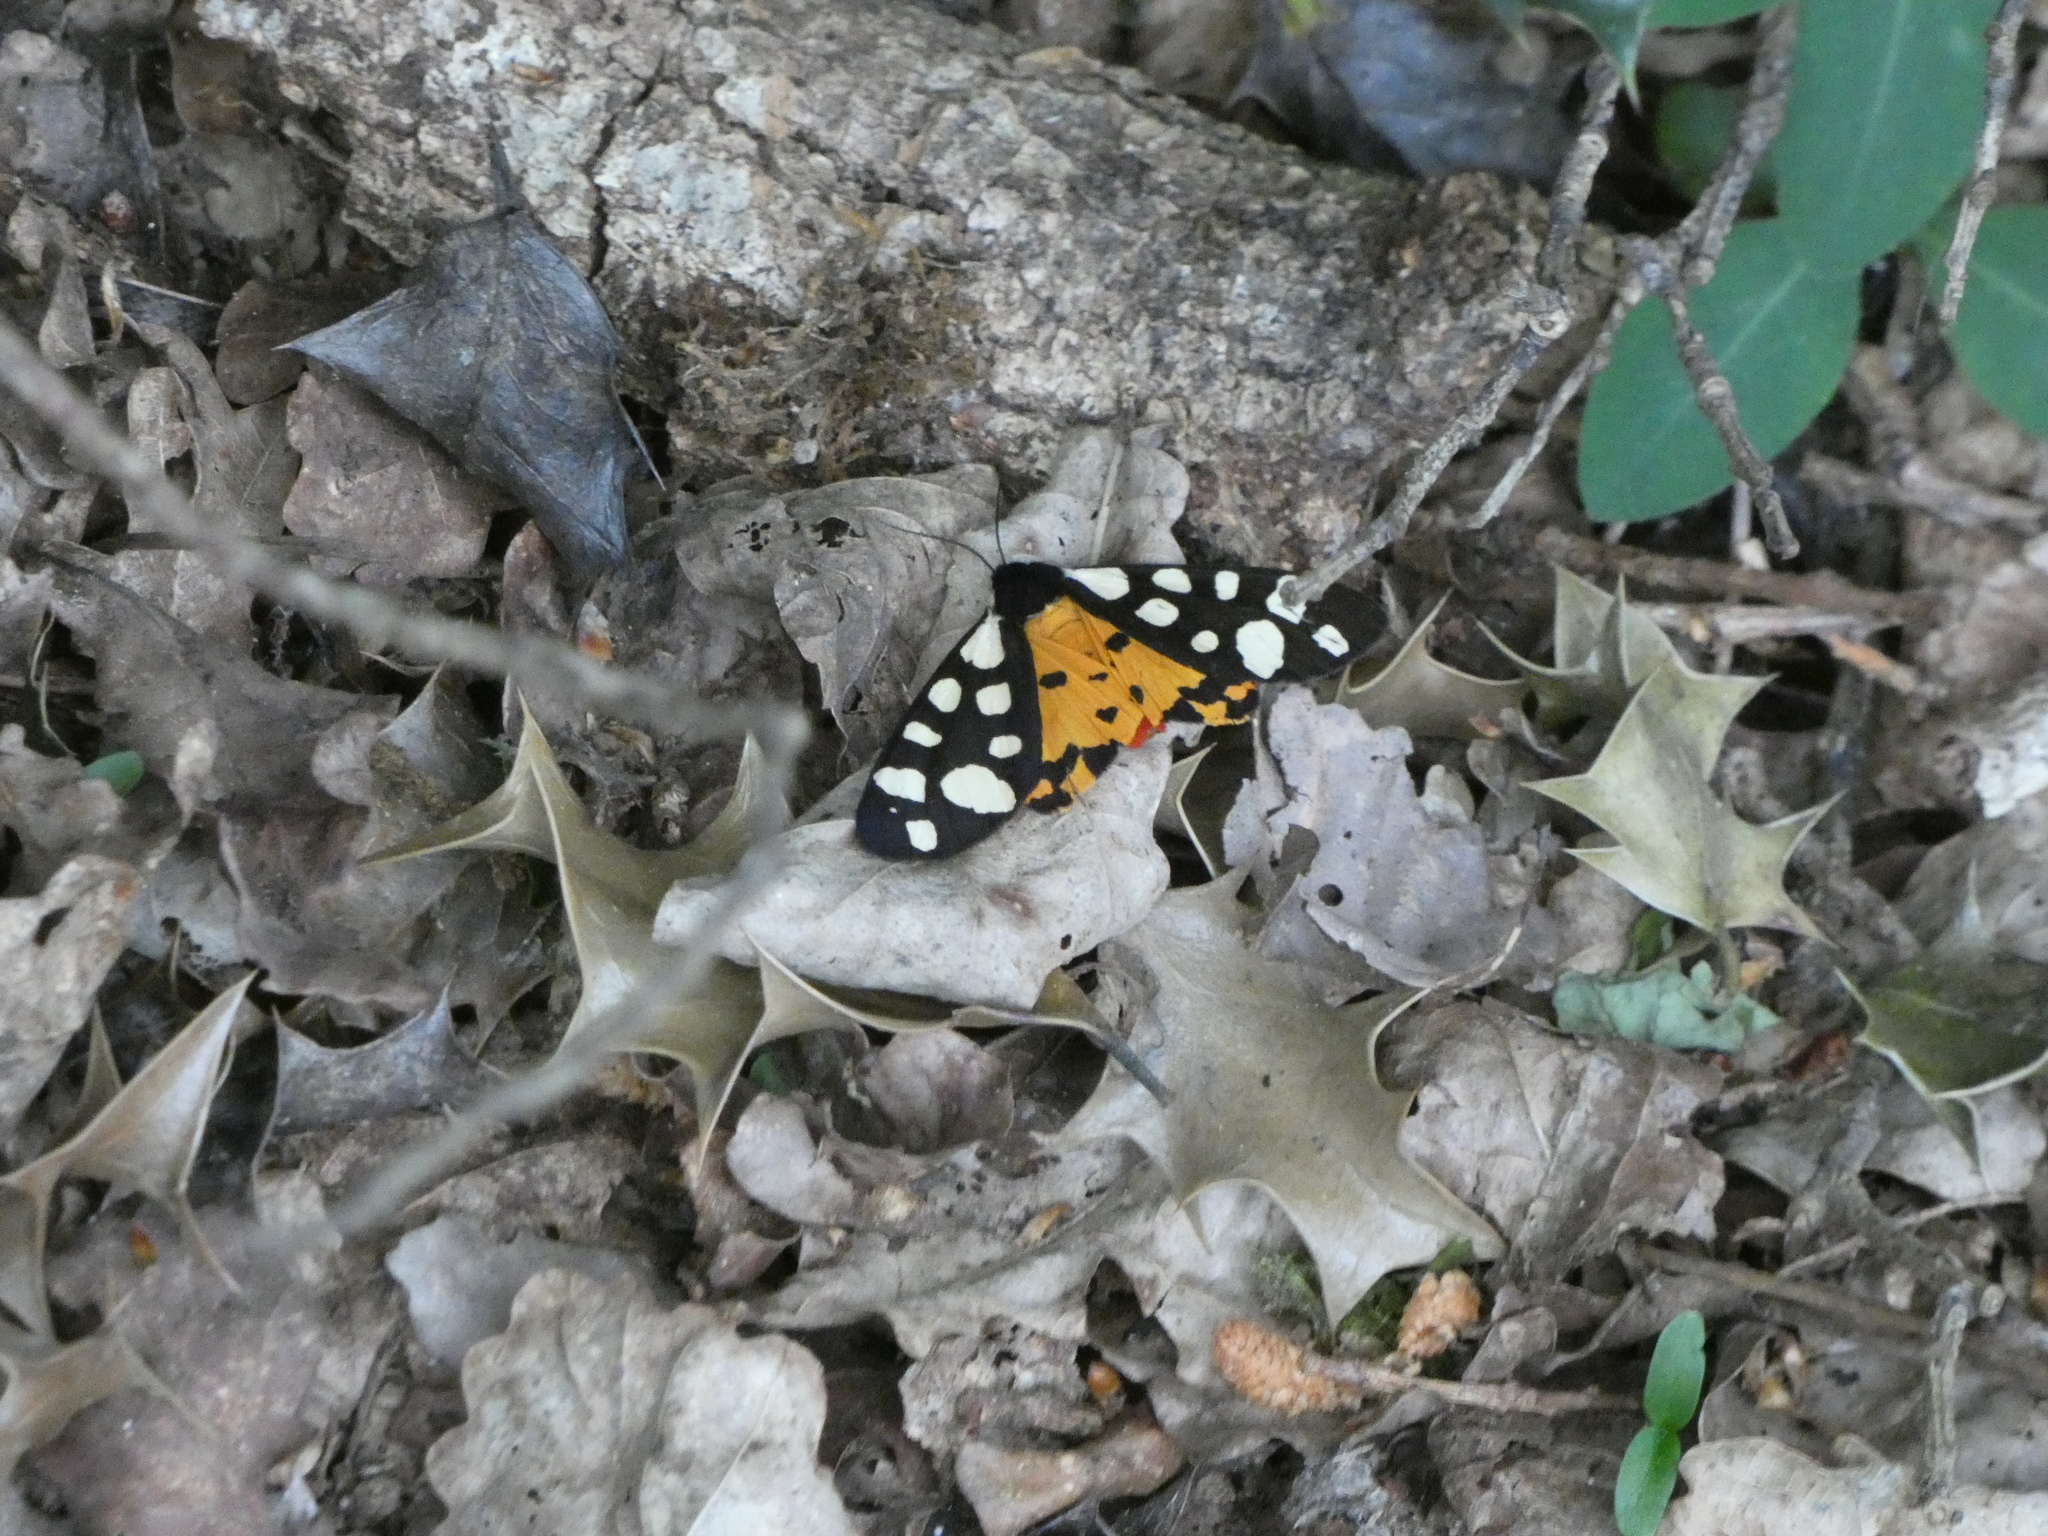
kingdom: Animalia
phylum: Arthropoda
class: Insecta
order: Lepidoptera
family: Erebidae
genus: Epicallia
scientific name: Epicallia villica
